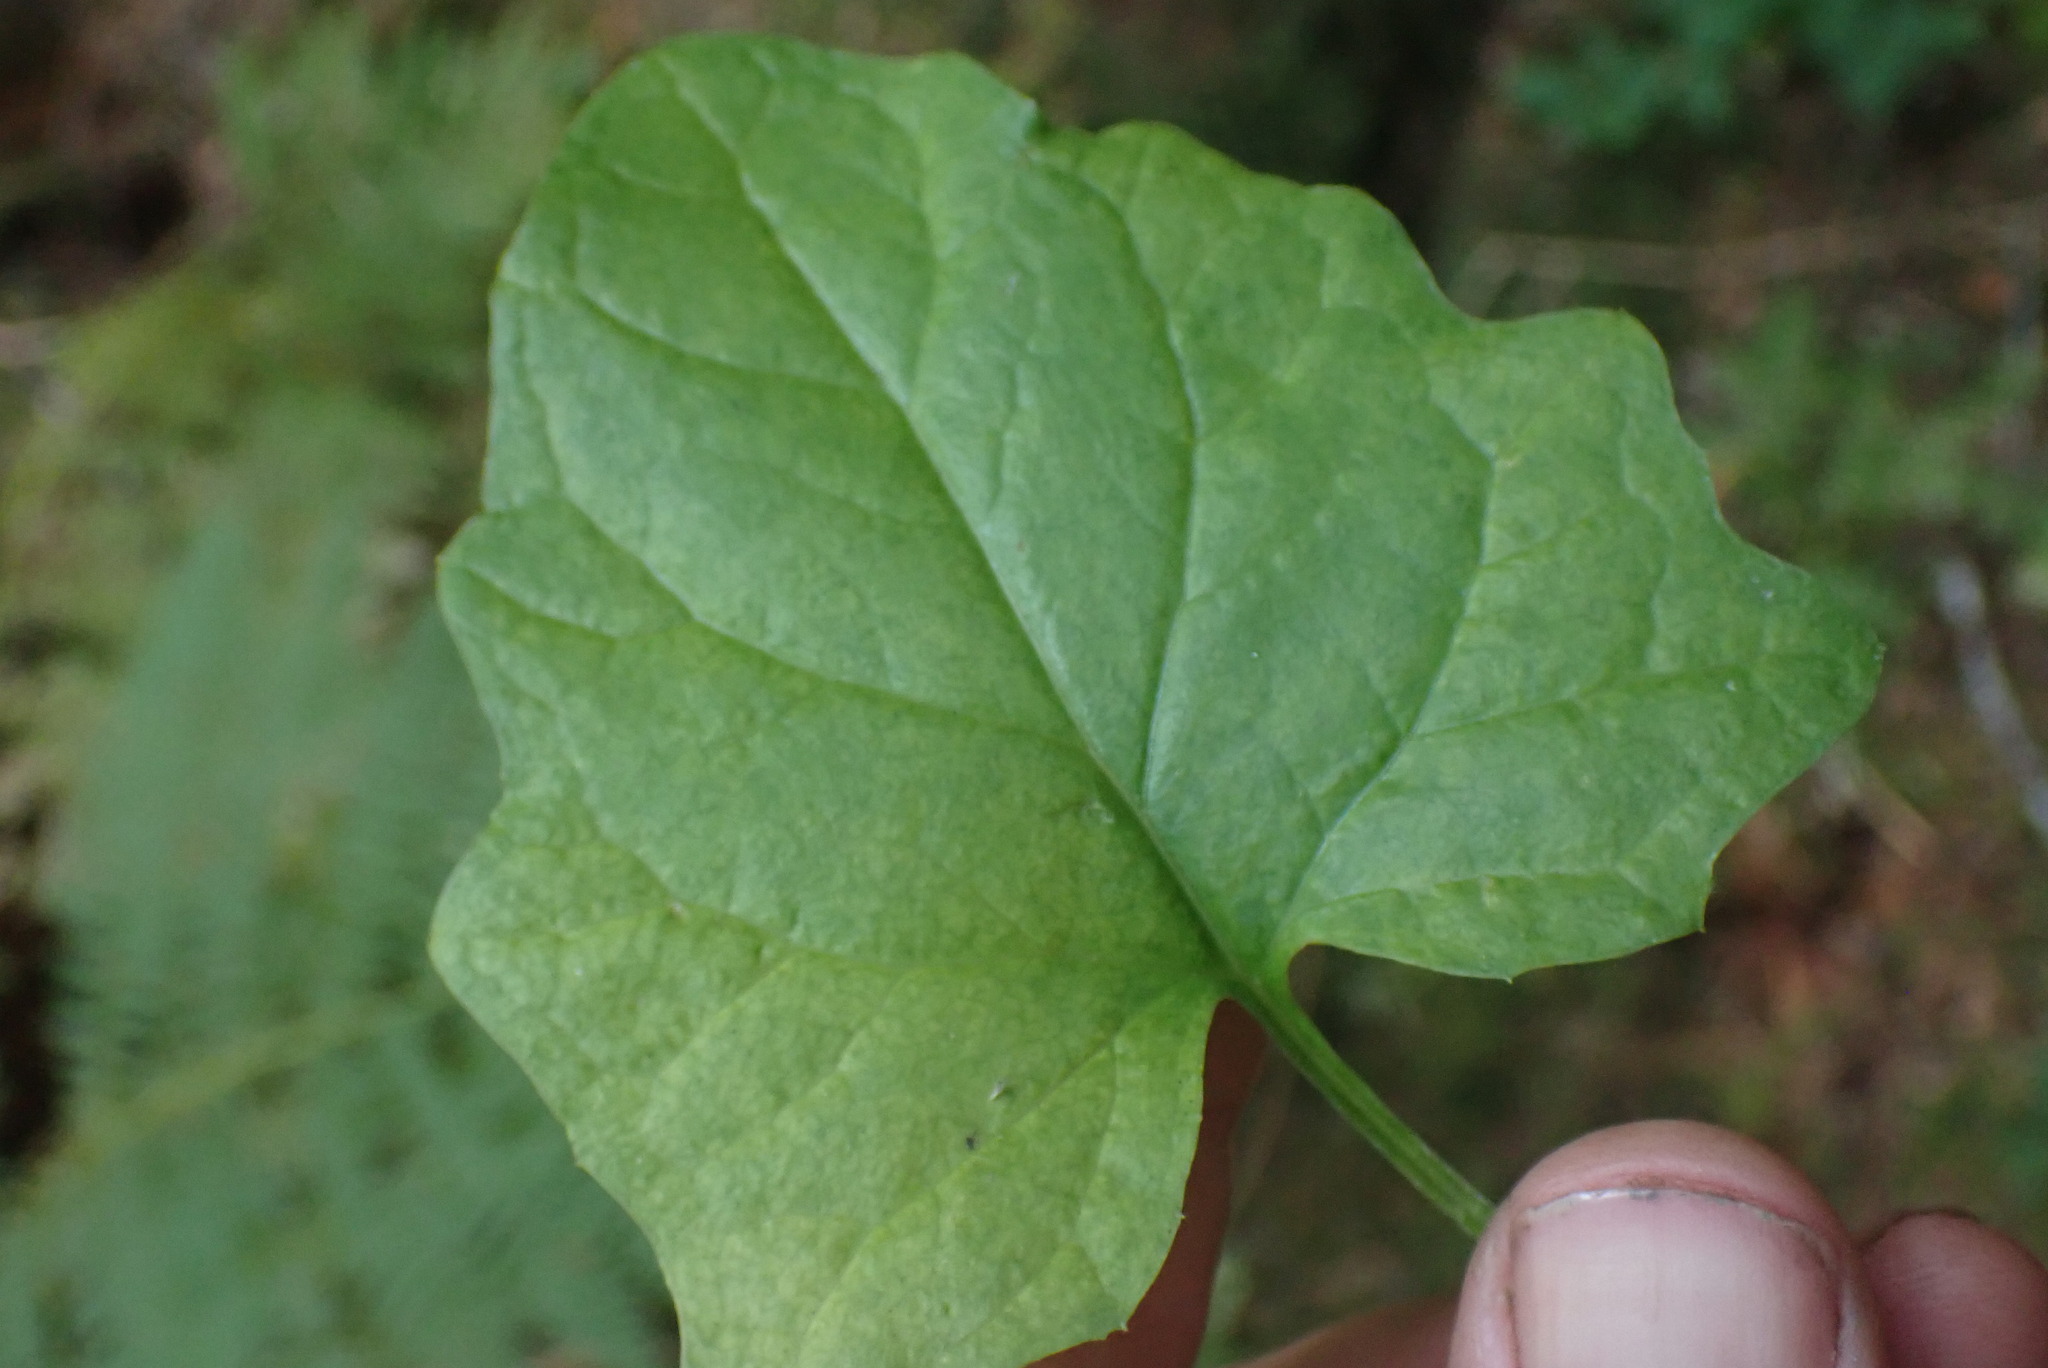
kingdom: Plantae
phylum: Tracheophyta
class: Magnoliopsida
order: Asterales
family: Asteraceae
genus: Adenocaulon
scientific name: Adenocaulon bicolor
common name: Trailplant
